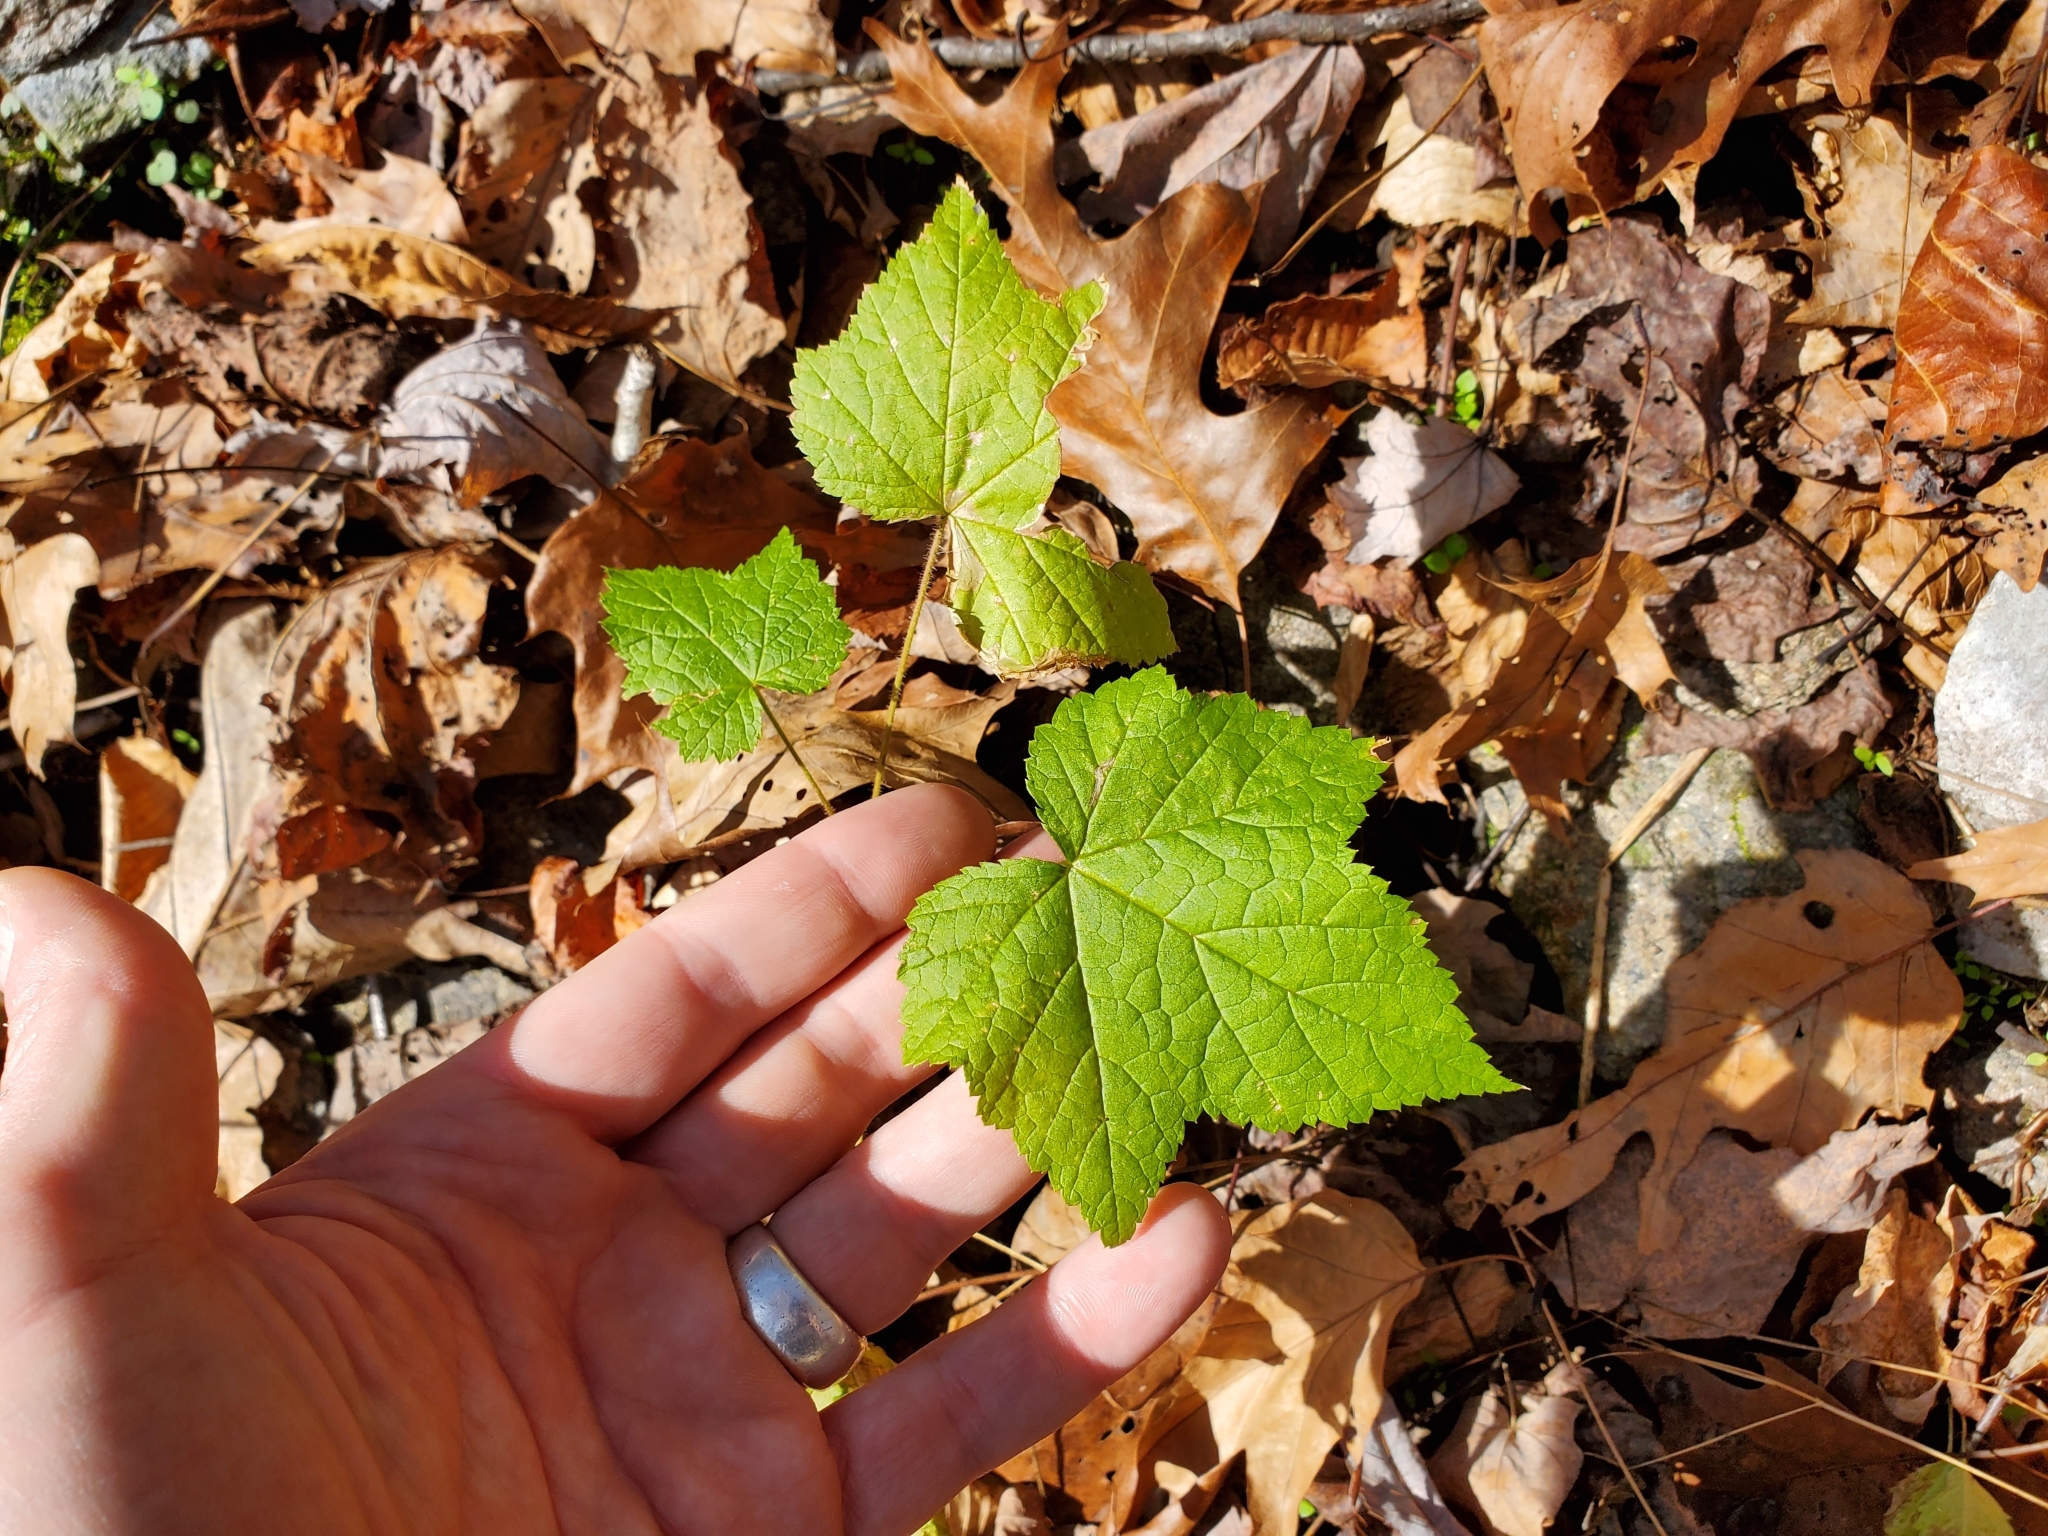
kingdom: Plantae
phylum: Tracheophyta
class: Magnoliopsida
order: Rosales
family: Rosaceae
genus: Rubus
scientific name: Rubus odoratus
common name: Purple-flowered raspberry
